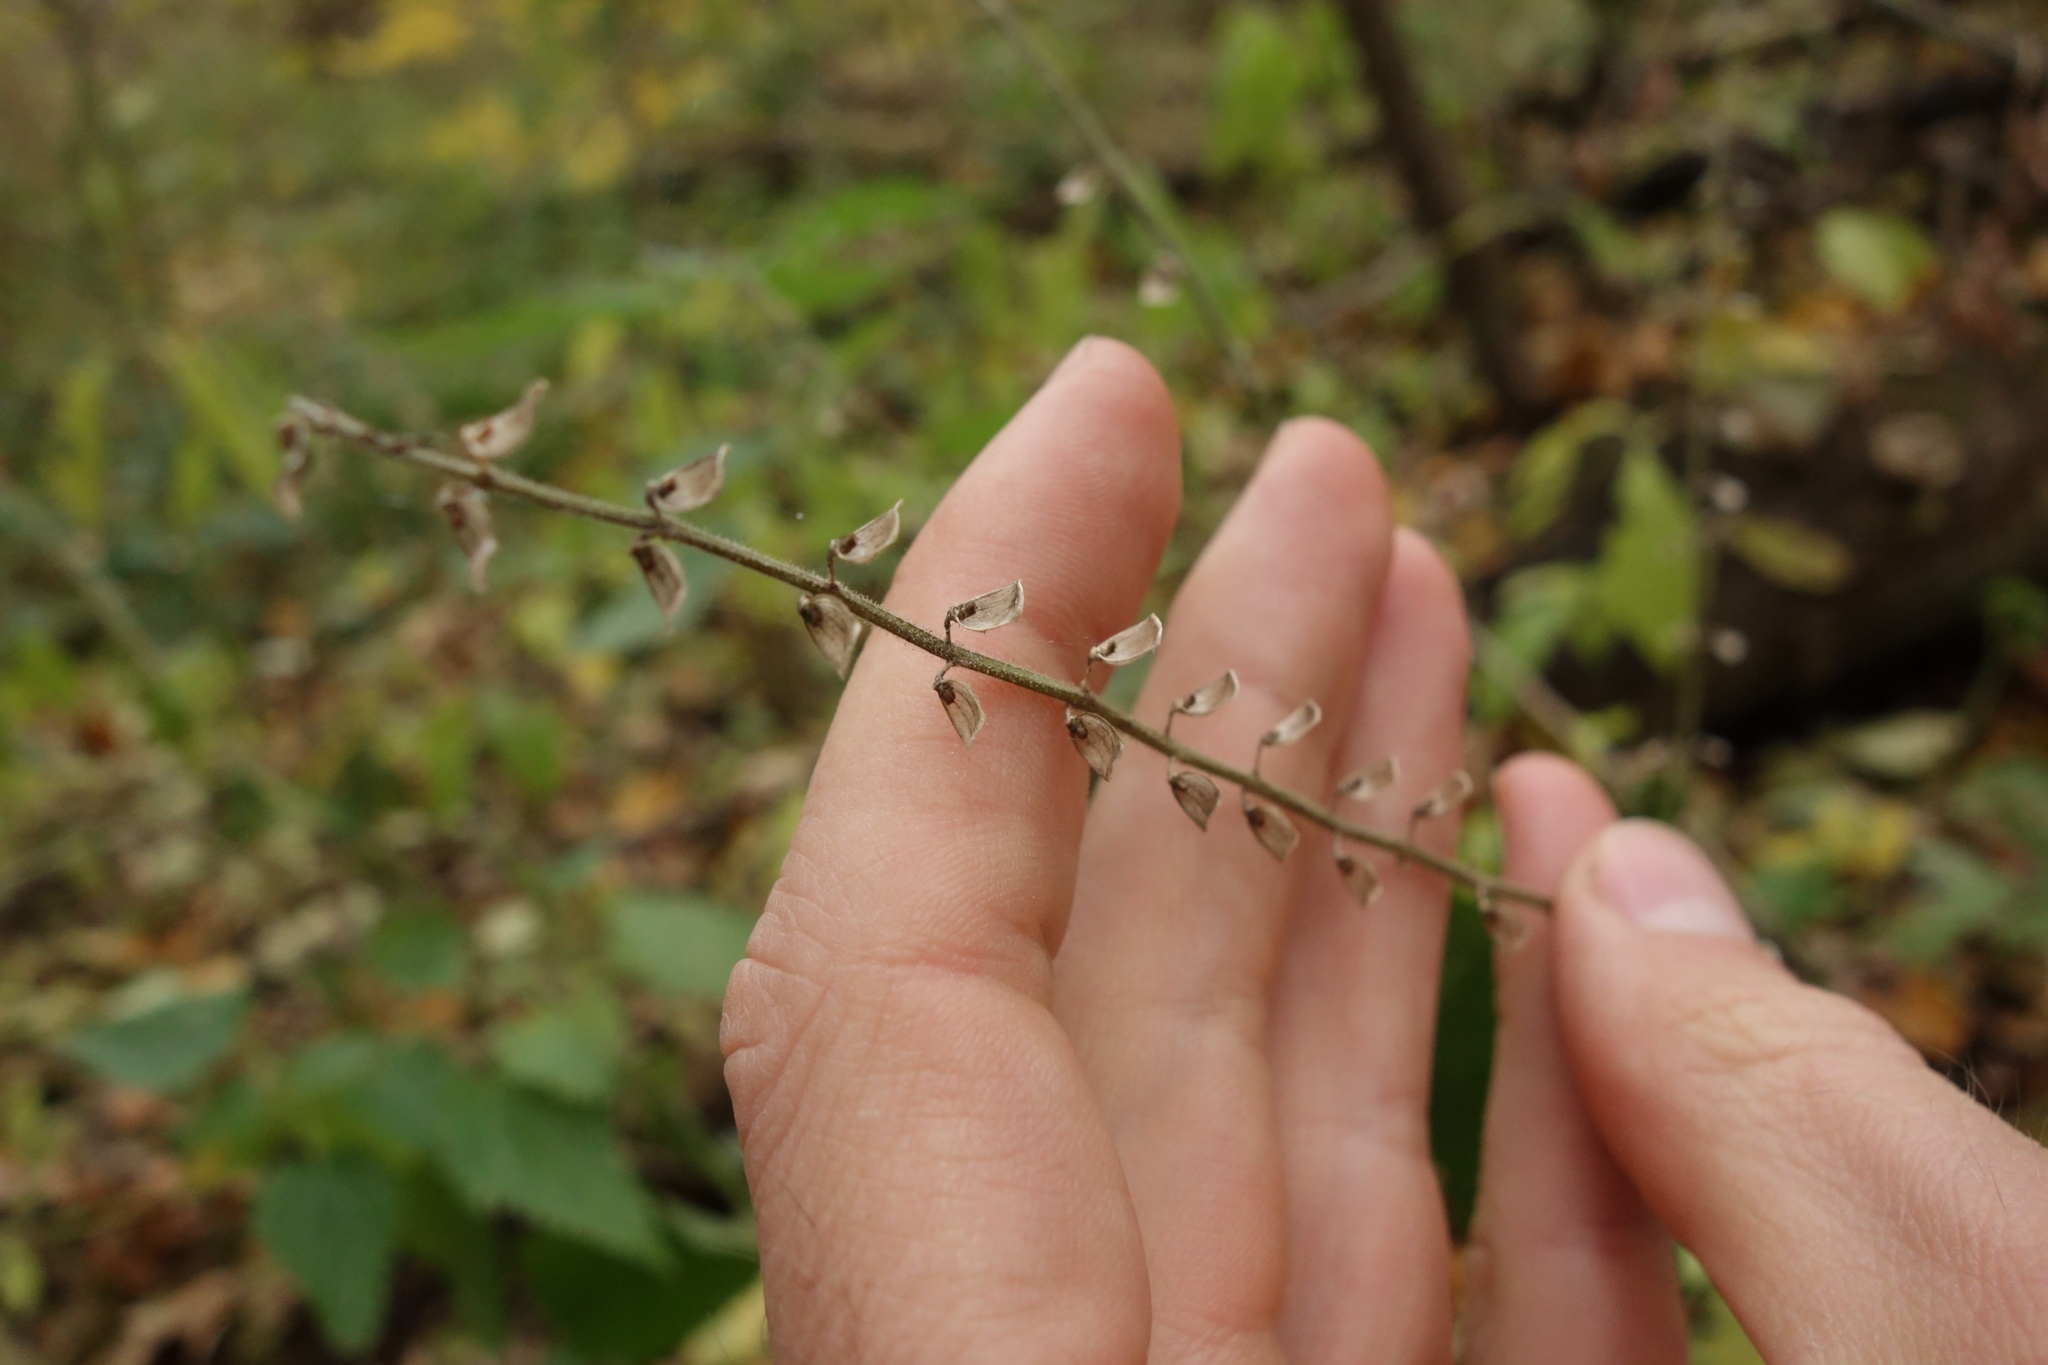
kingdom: Plantae
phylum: Tracheophyta
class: Magnoliopsida
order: Lamiales
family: Lamiaceae
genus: Scutellaria
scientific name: Scutellaria altissima
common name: Somerset skullcap
